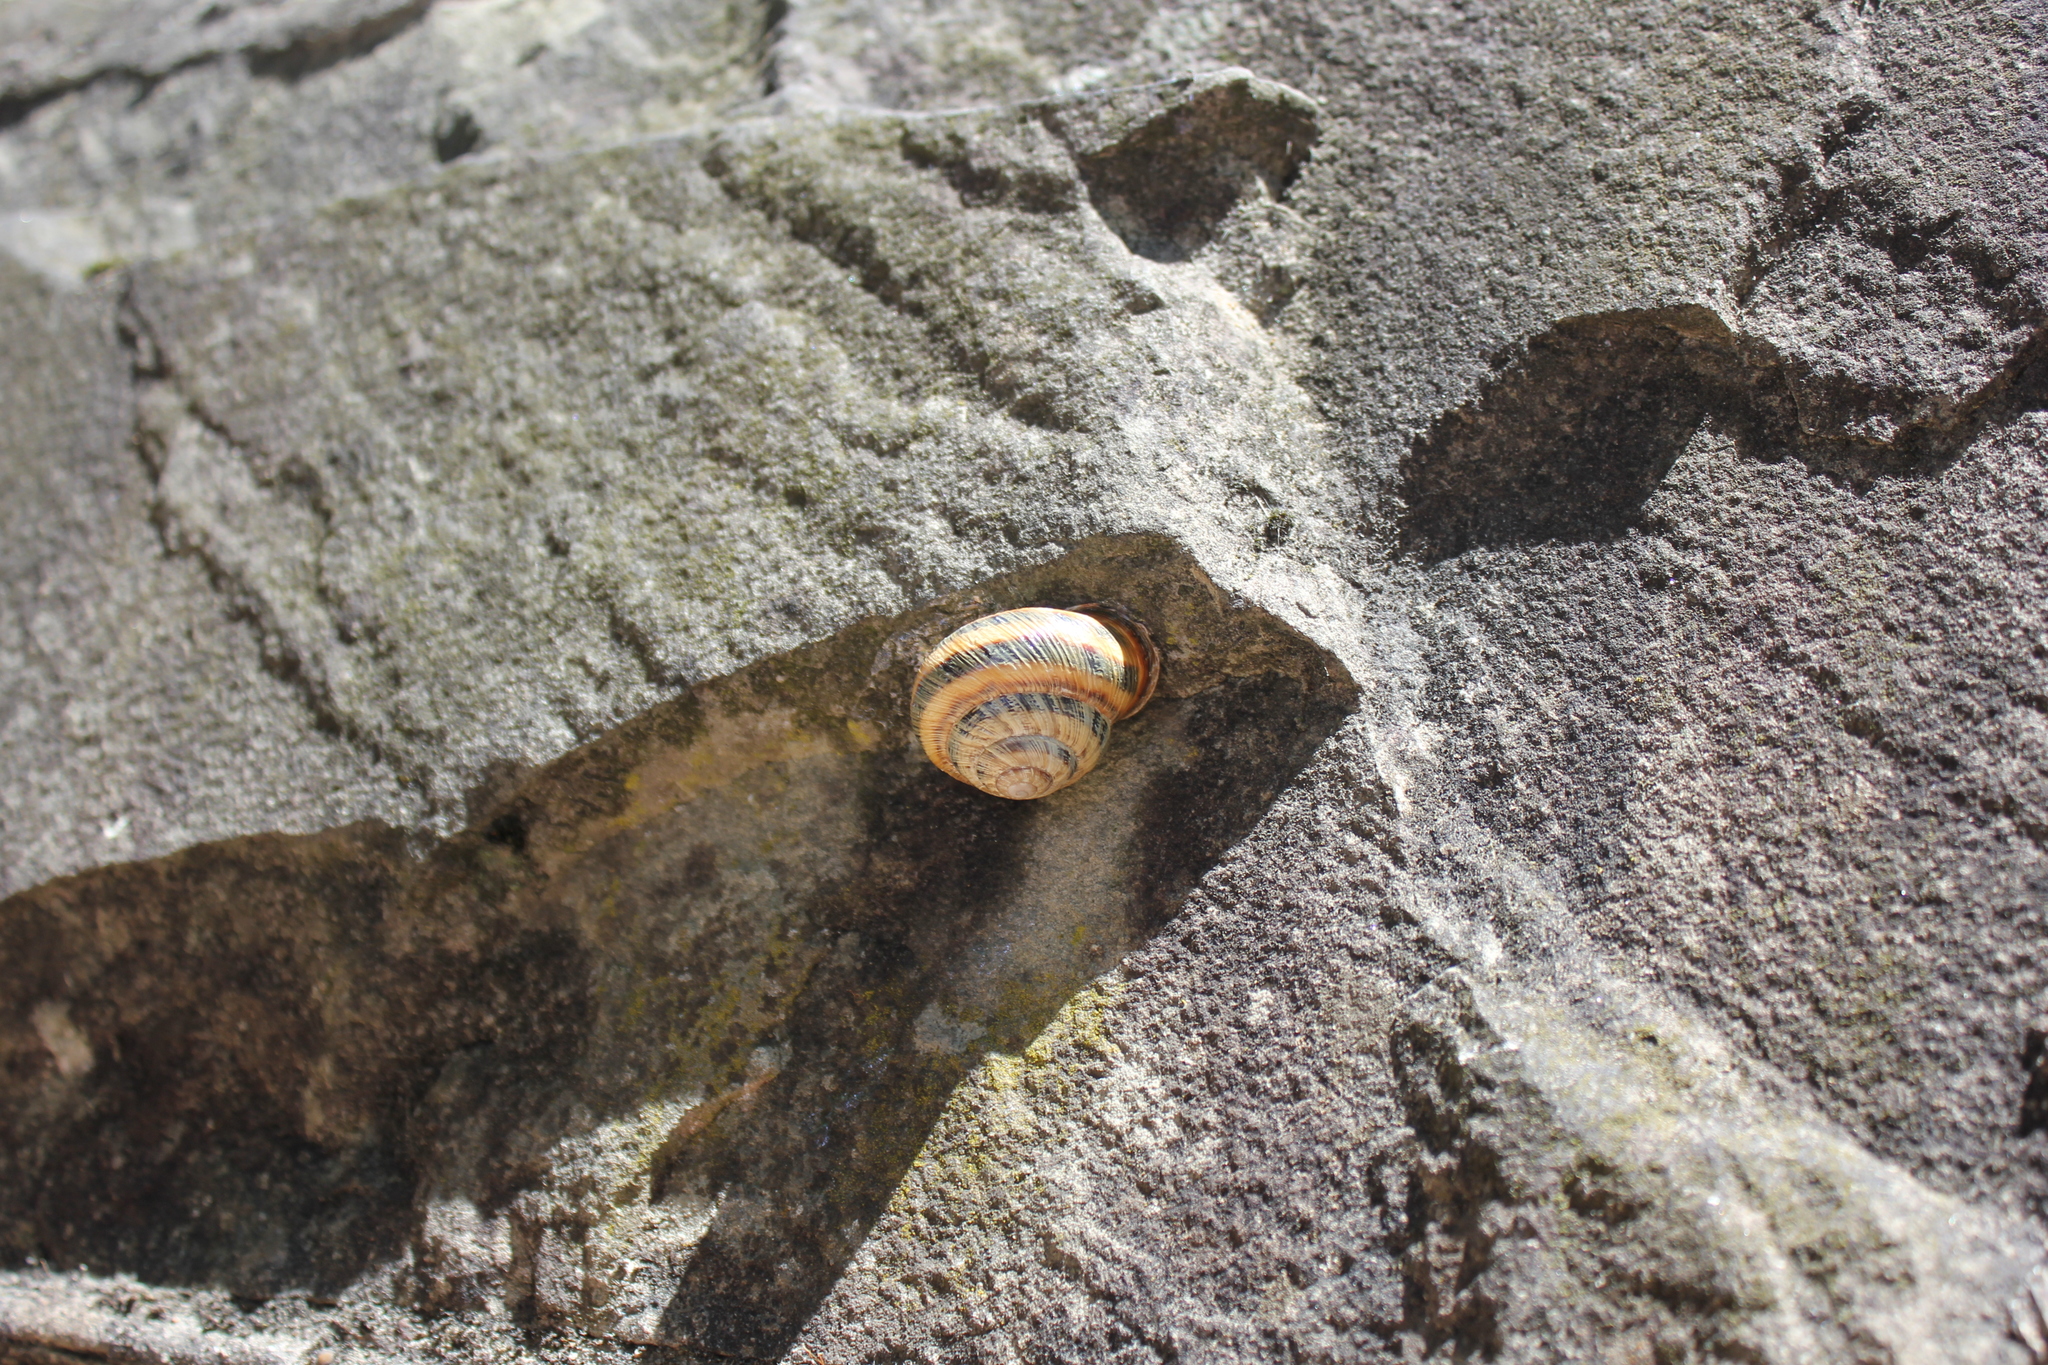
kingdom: Animalia
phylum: Mollusca
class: Gastropoda
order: Stylommatophora
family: Helicidae
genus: Caucasotachea
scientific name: Caucasotachea atrolabiata
